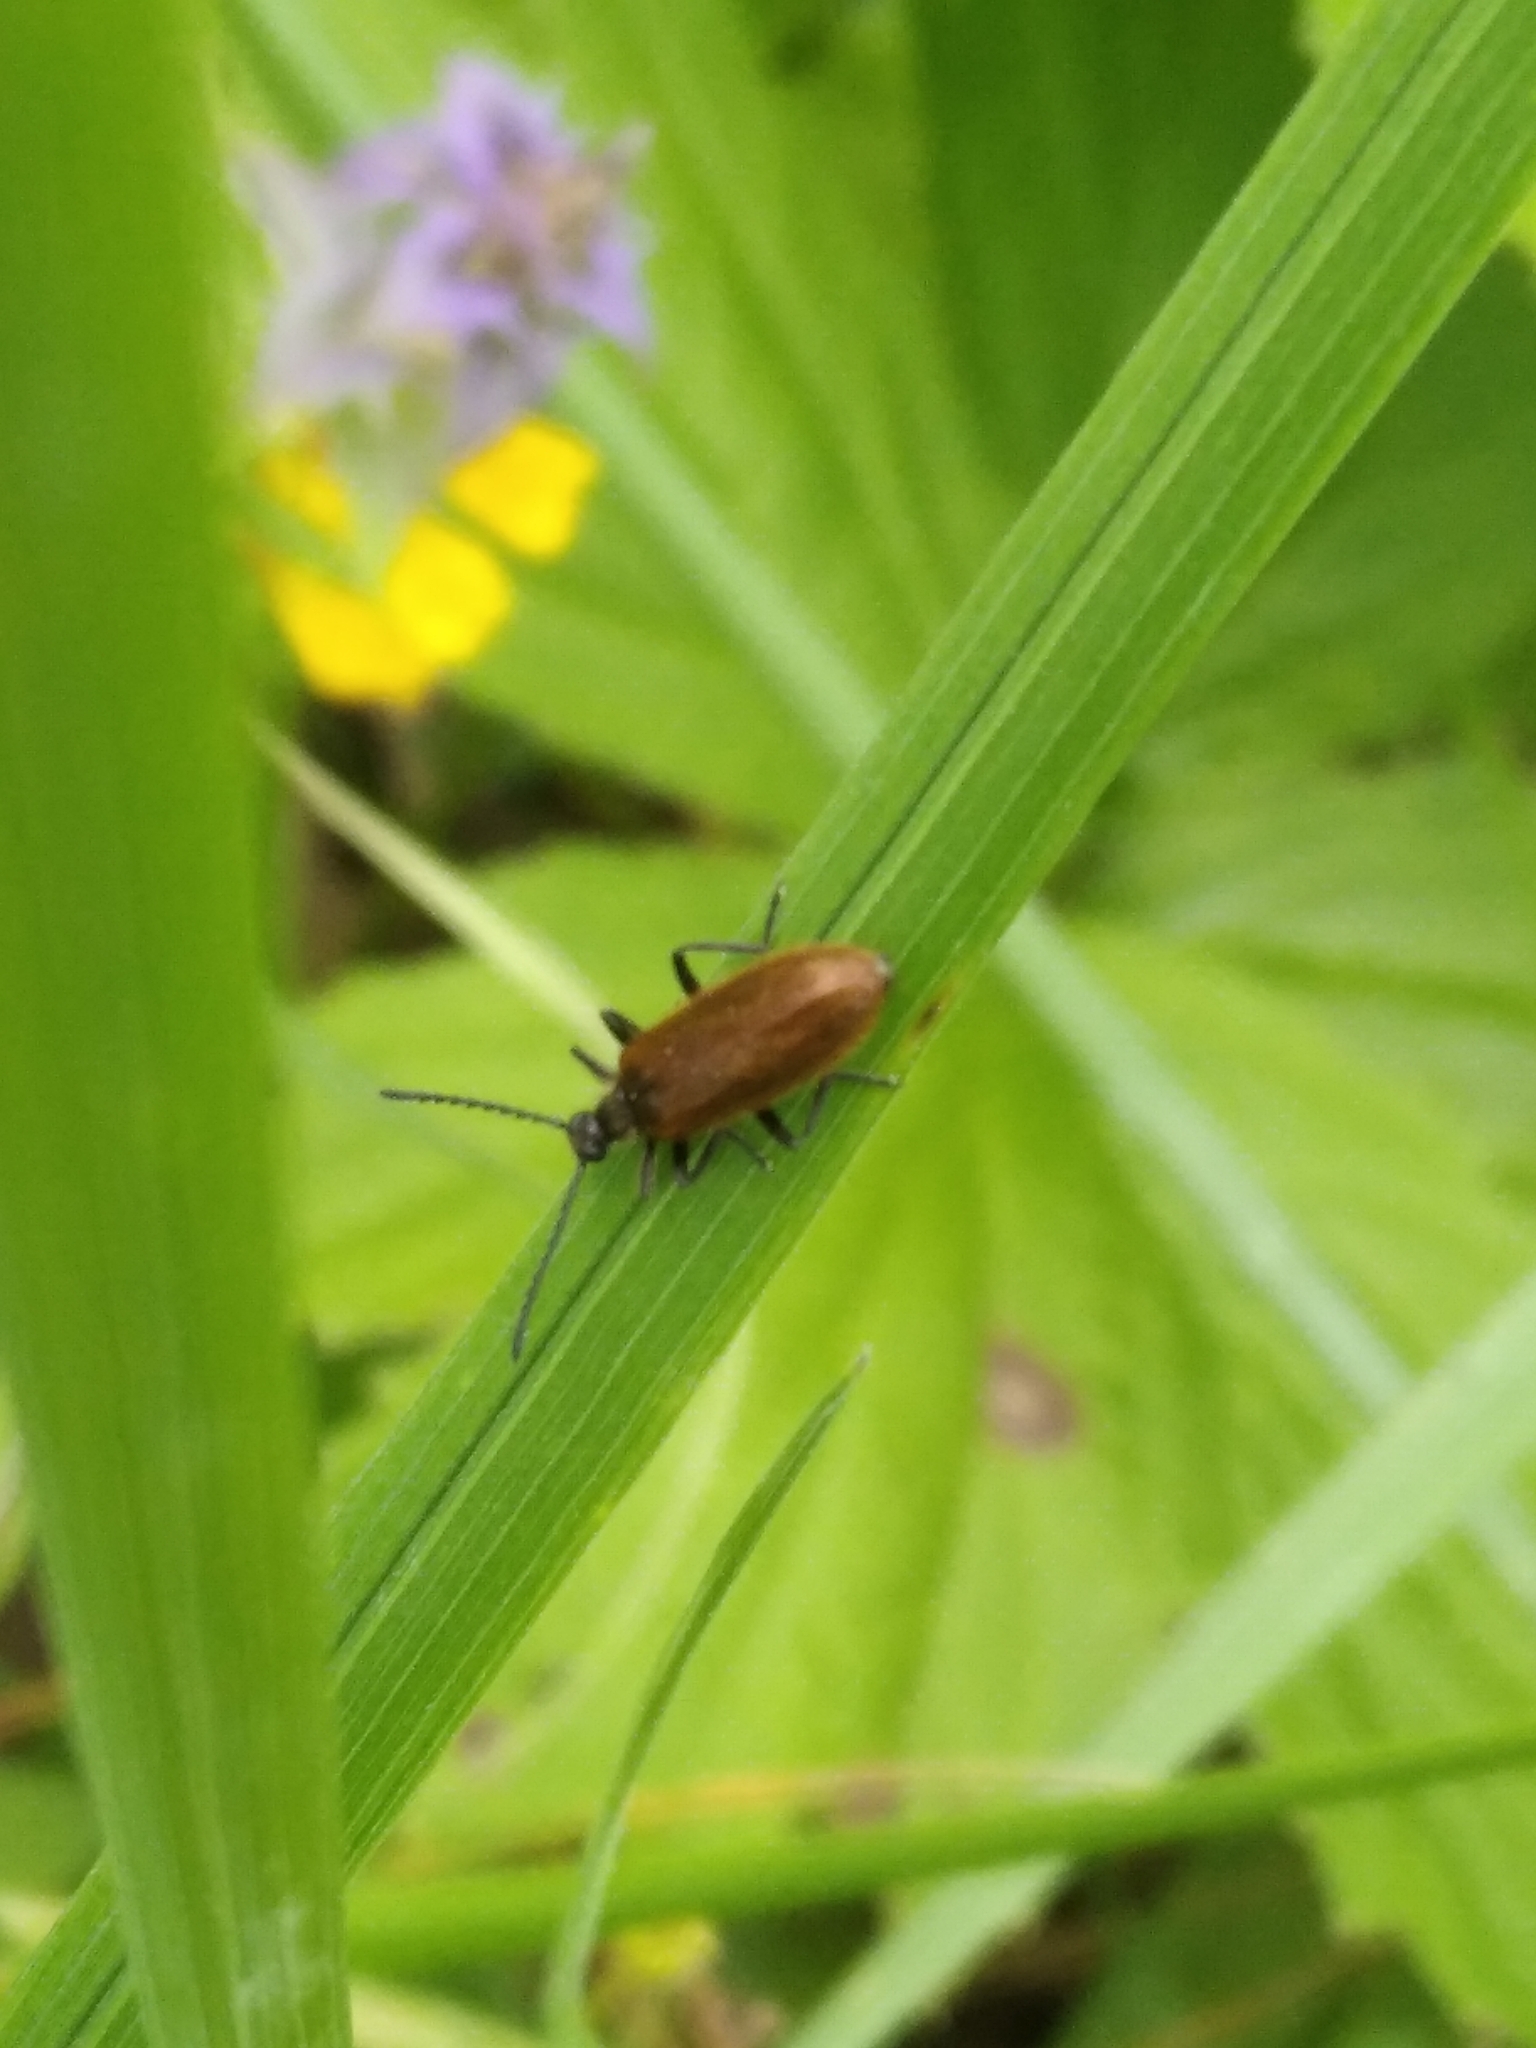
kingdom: Animalia
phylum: Arthropoda
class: Insecta
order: Coleoptera
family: Tenebrionidae
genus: Lagria
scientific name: Lagria hirta
